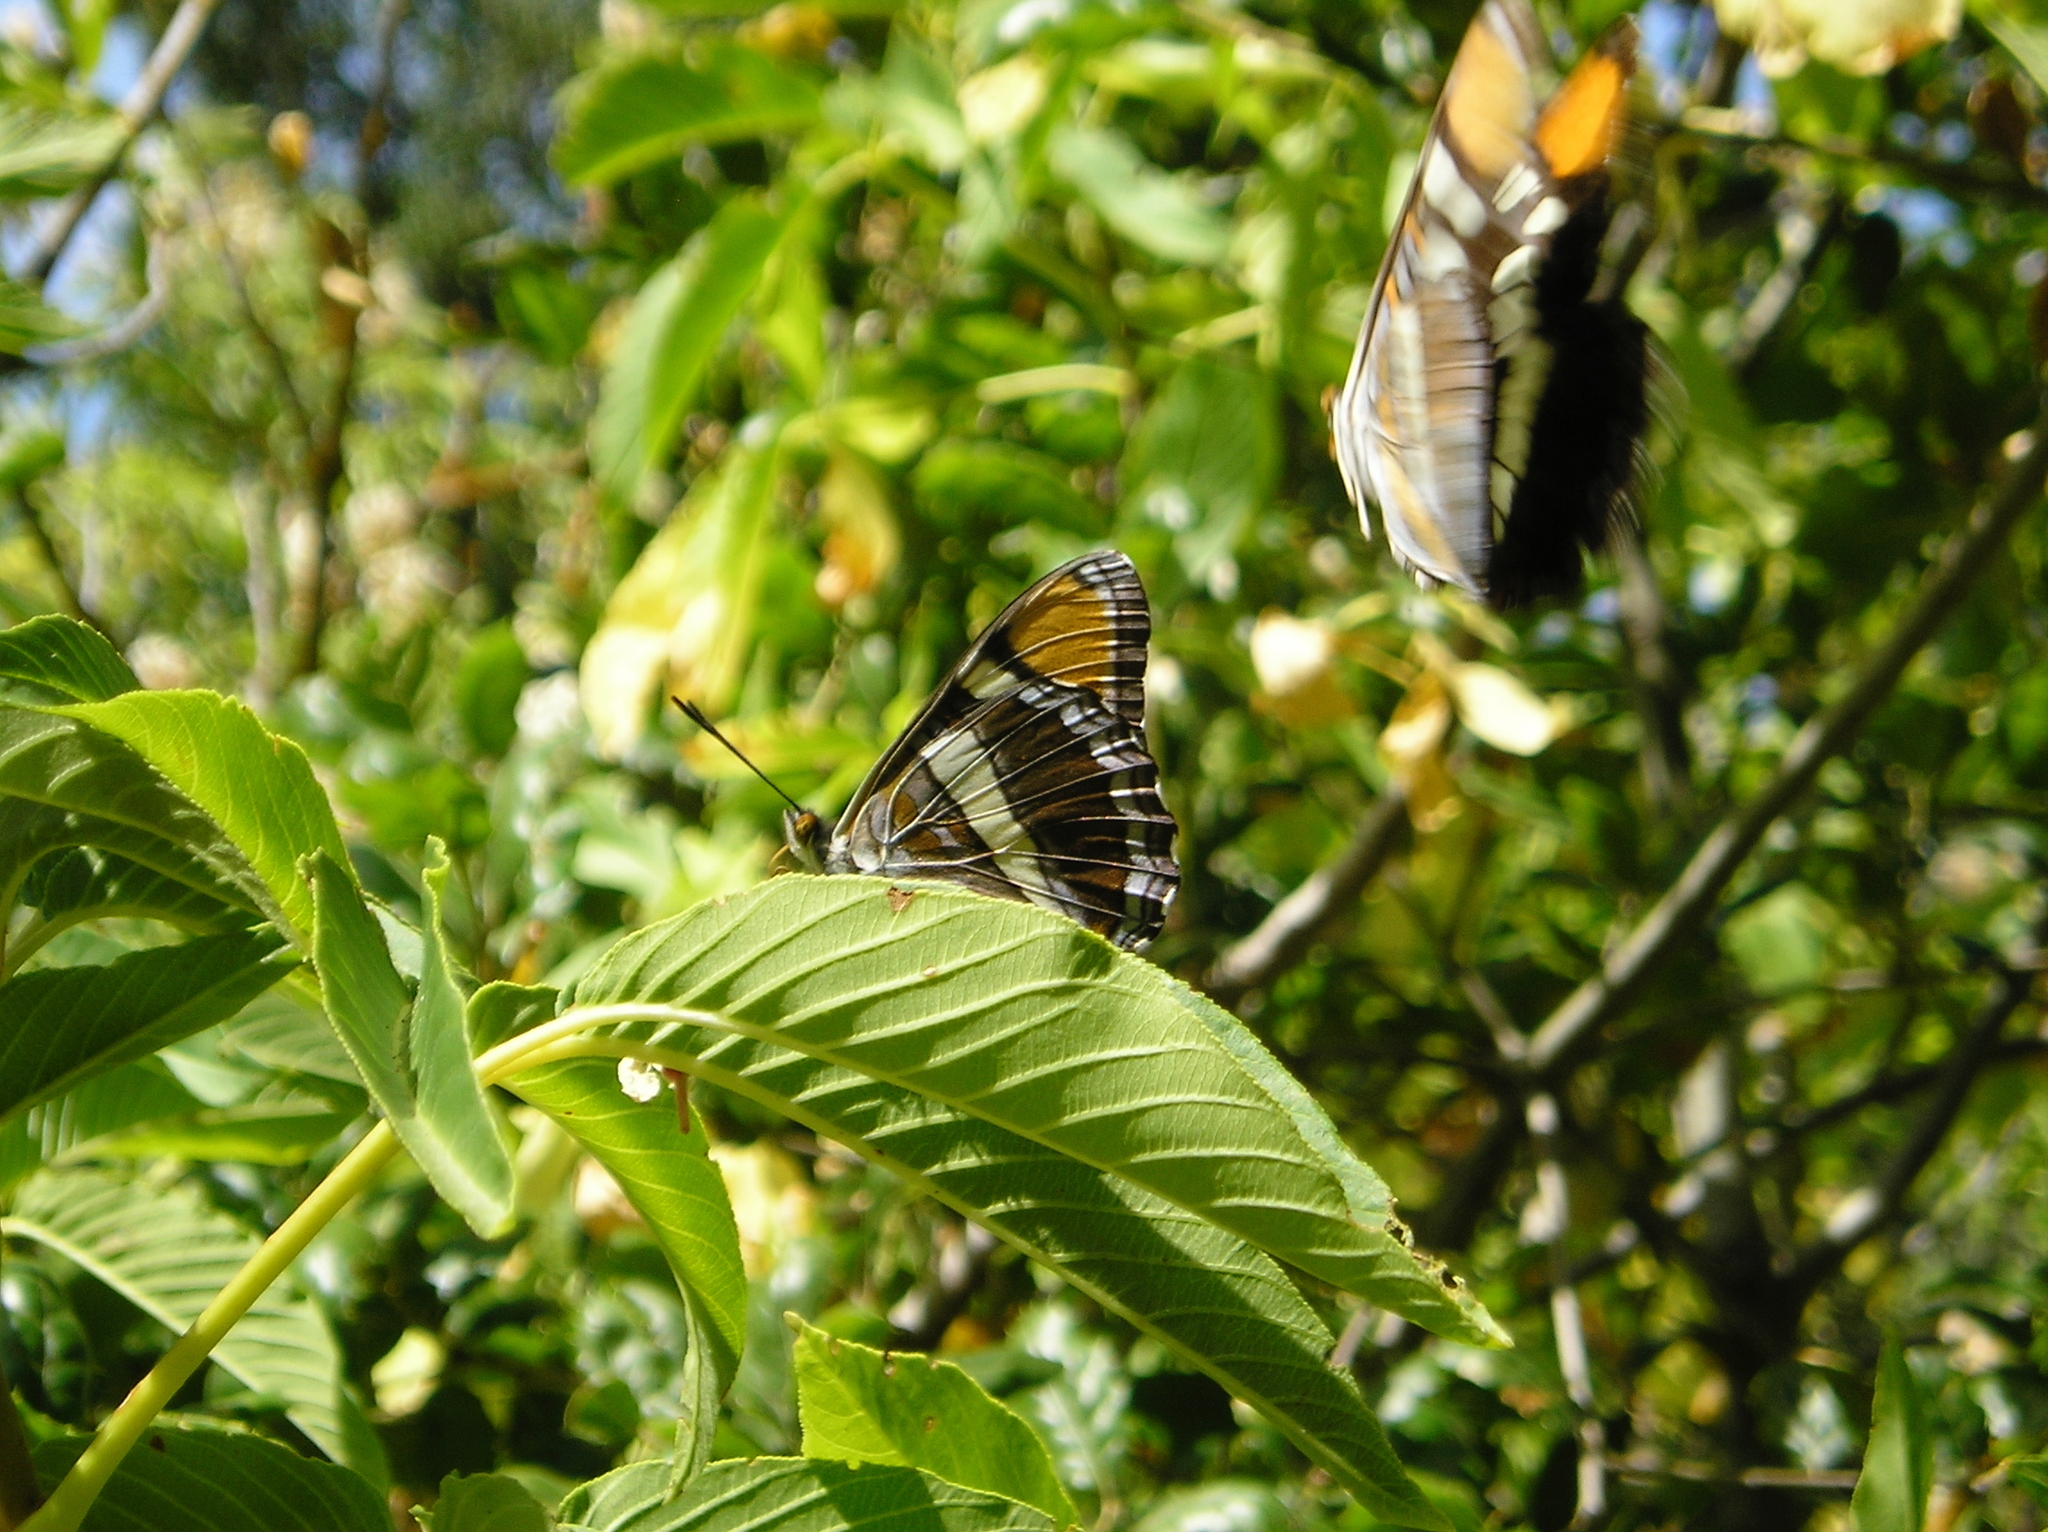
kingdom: Animalia
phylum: Arthropoda
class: Insecta
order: Lepidoptera
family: Nymphalidae
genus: Limenitis
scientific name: Limenitis bredowii
